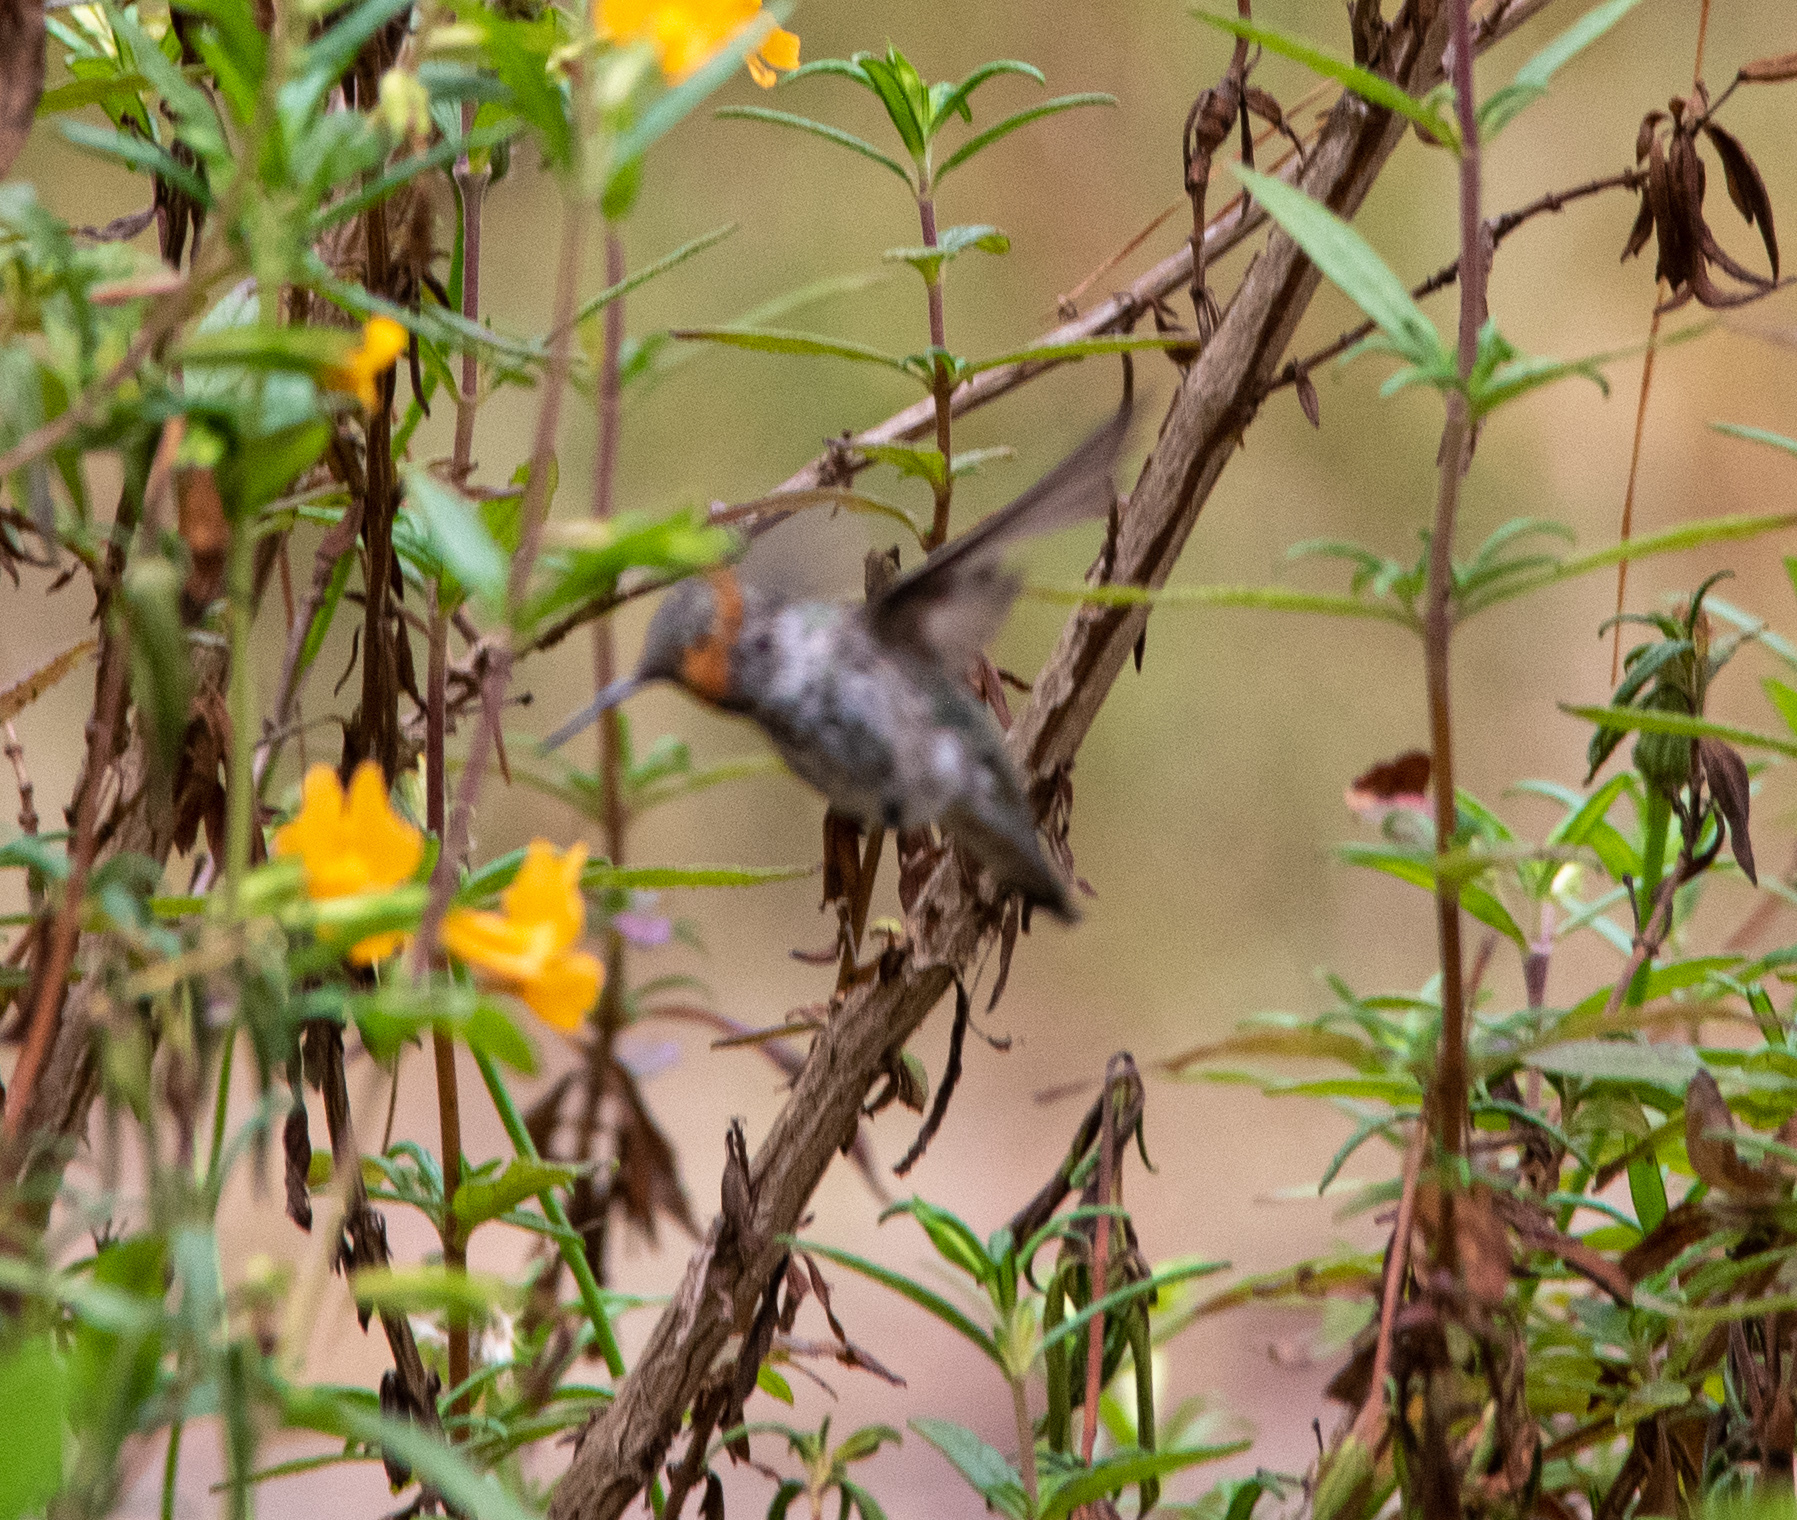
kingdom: Animalia
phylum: Chordata
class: Aves
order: Apodiformes
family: Trochilidae
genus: Calypte
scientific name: Calypte anna
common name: Anna's hummingbird
